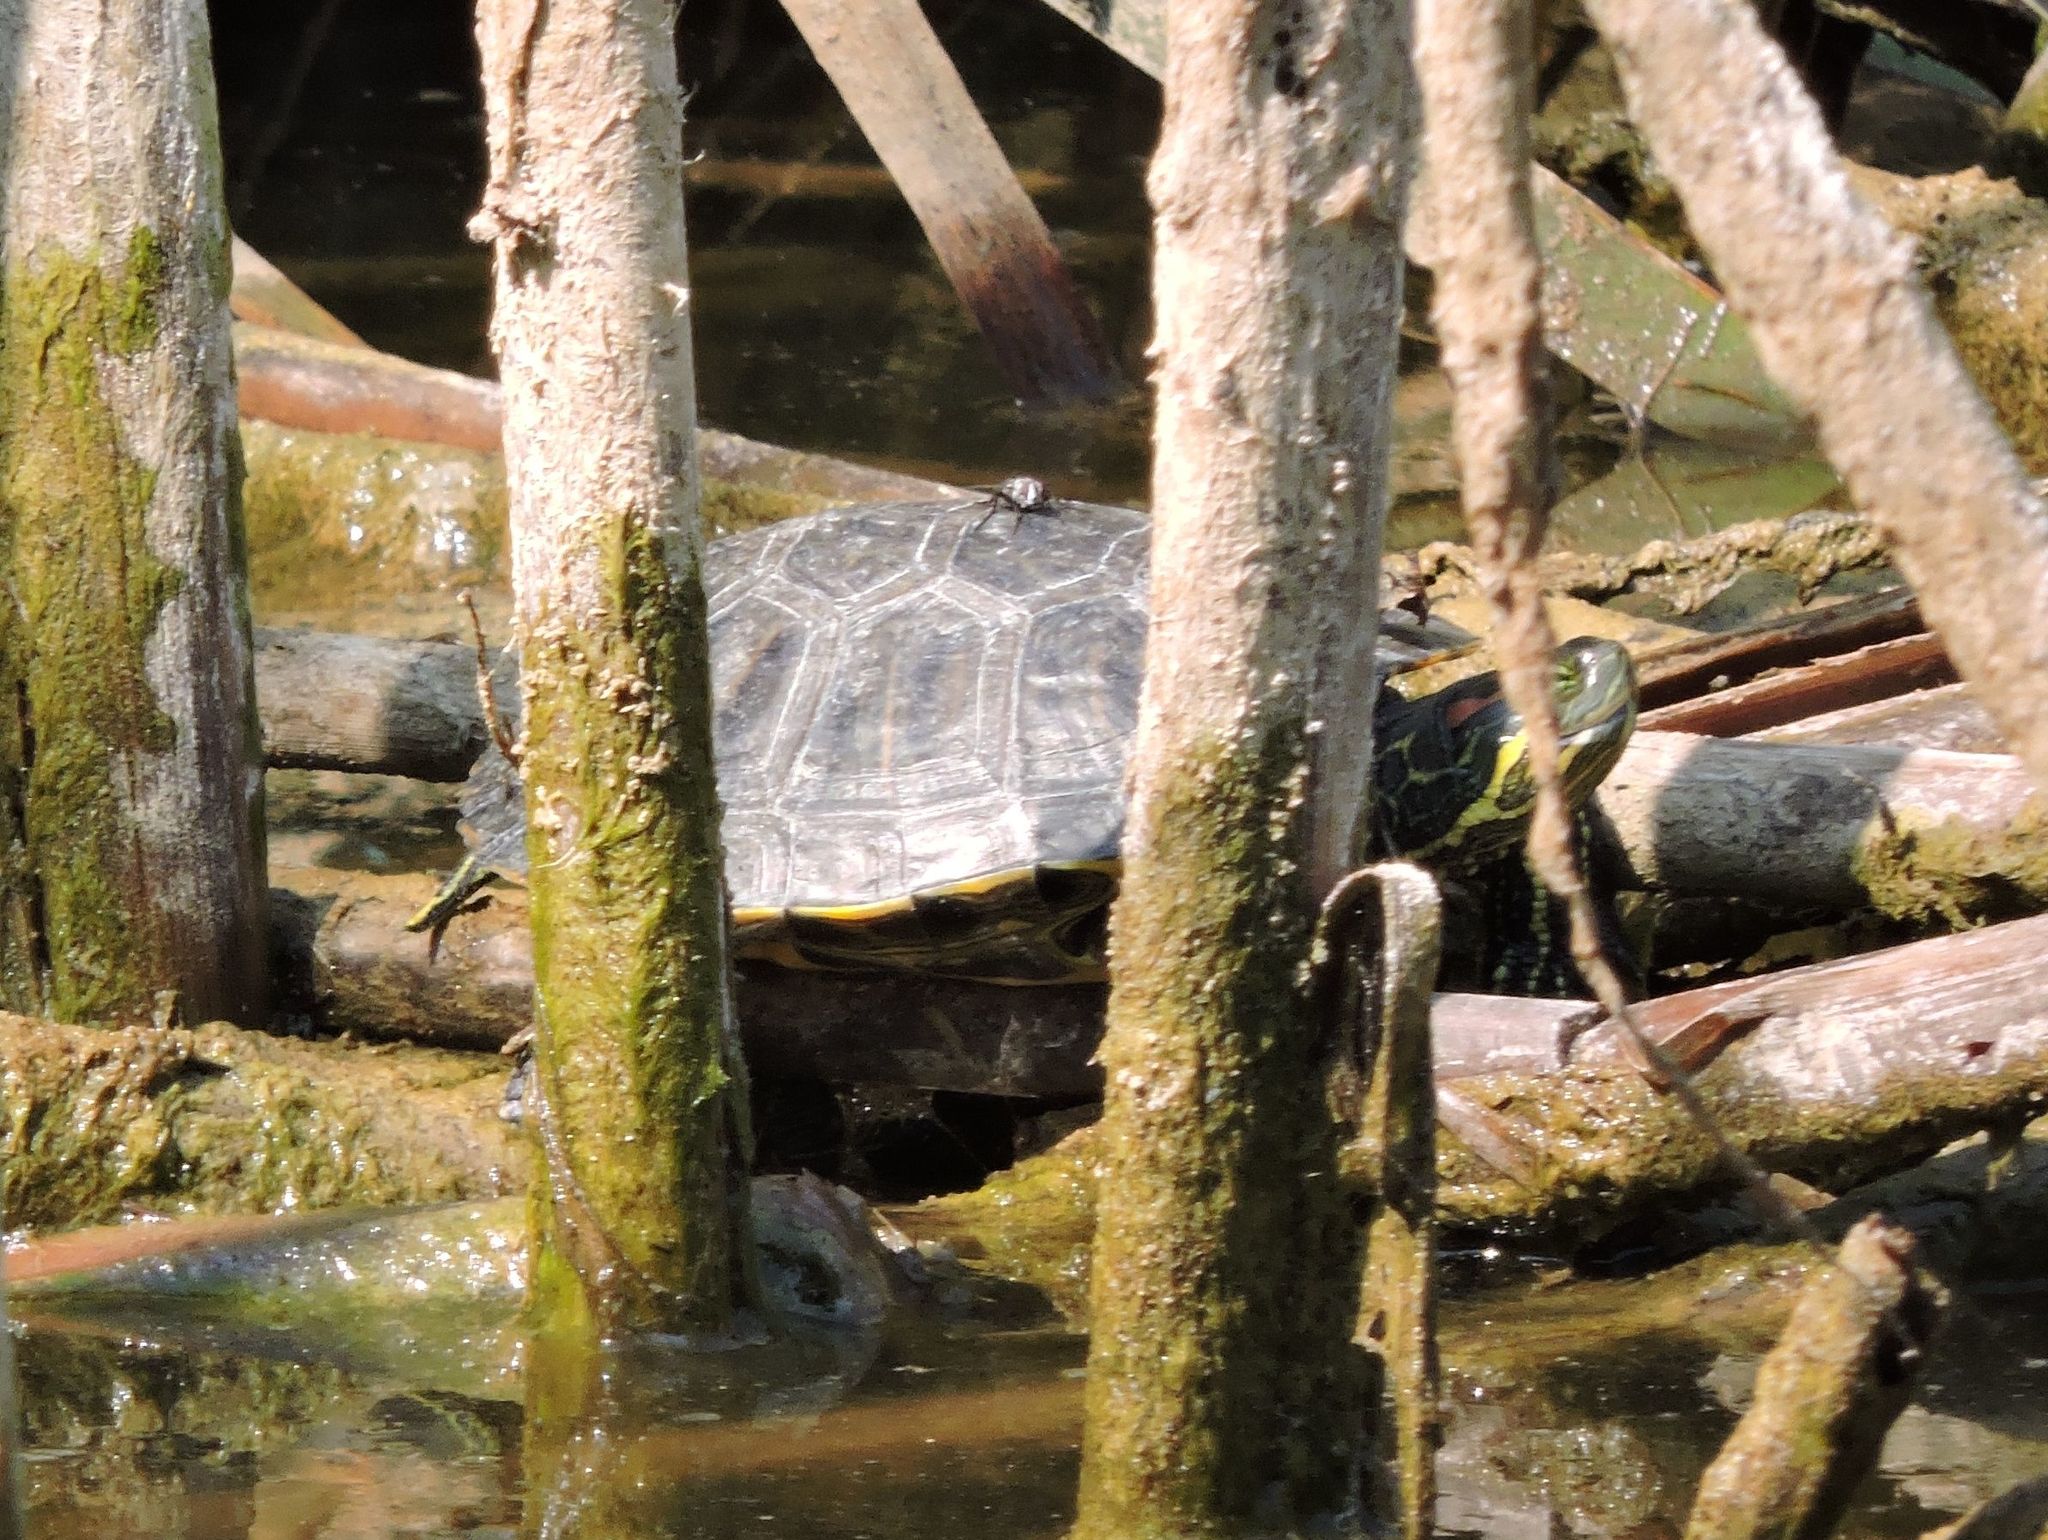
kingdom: Animalia
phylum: Chordata
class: Testudines
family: Emydidae
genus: Trachemys
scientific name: Trachemys scripta
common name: Slider
